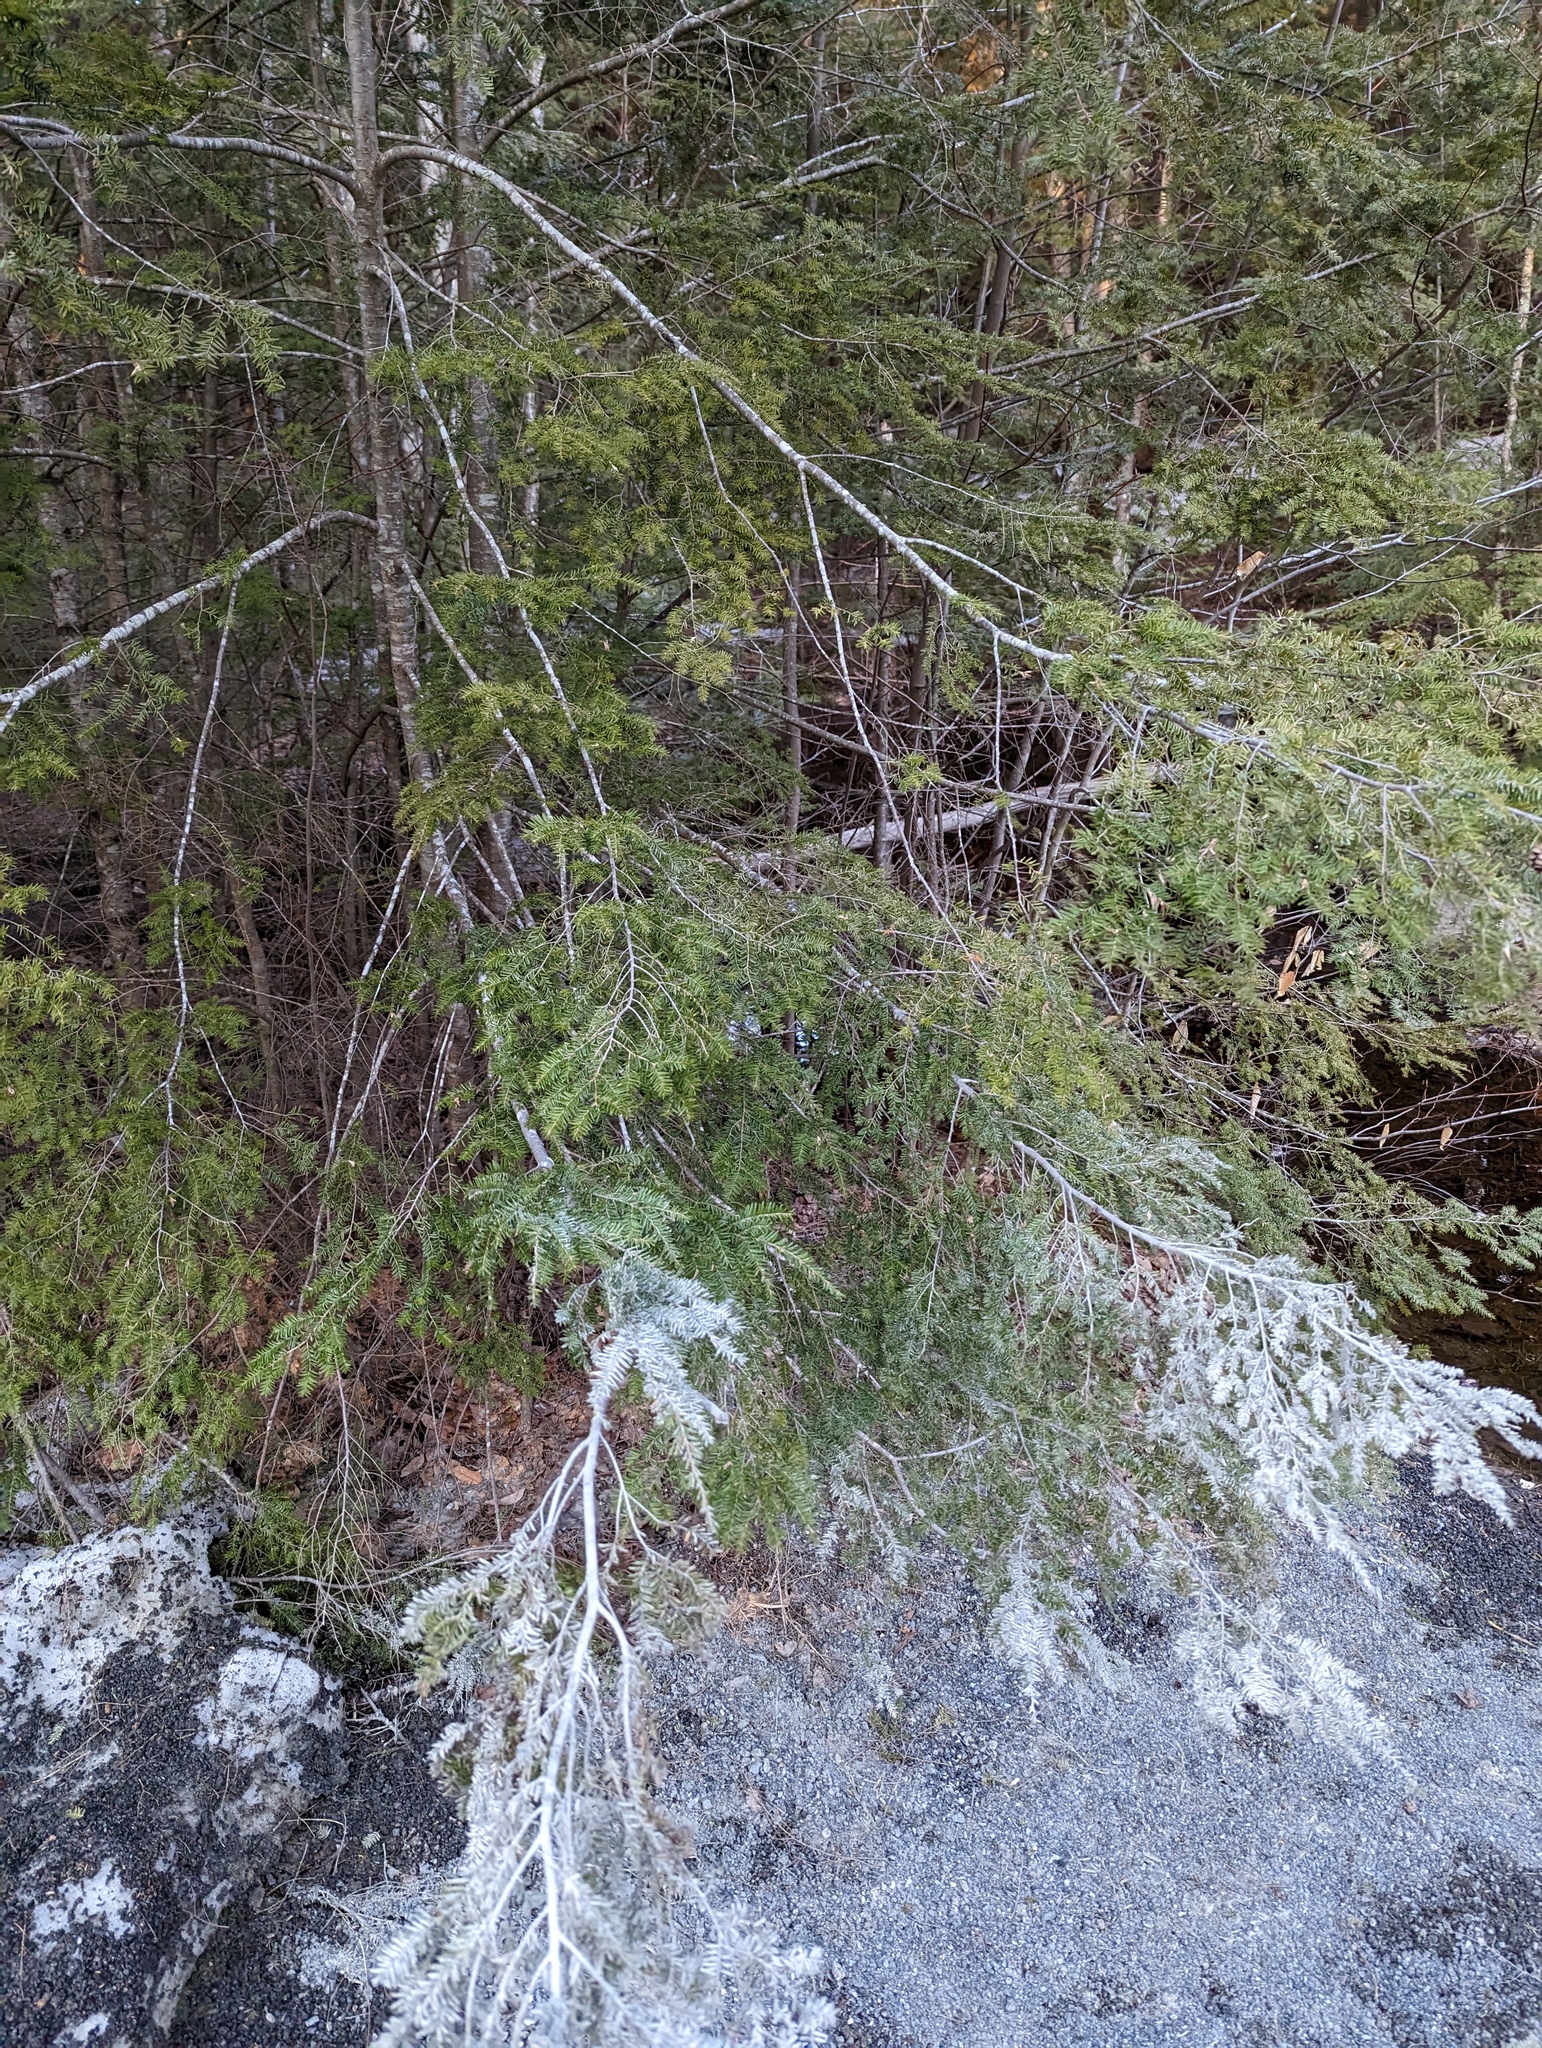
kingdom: Plantae
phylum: Tracheophyta
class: Pinopsida
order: Pinales
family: Pinaceae
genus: Tsuga
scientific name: Tsuga canadensis
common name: Eastern hemlock
